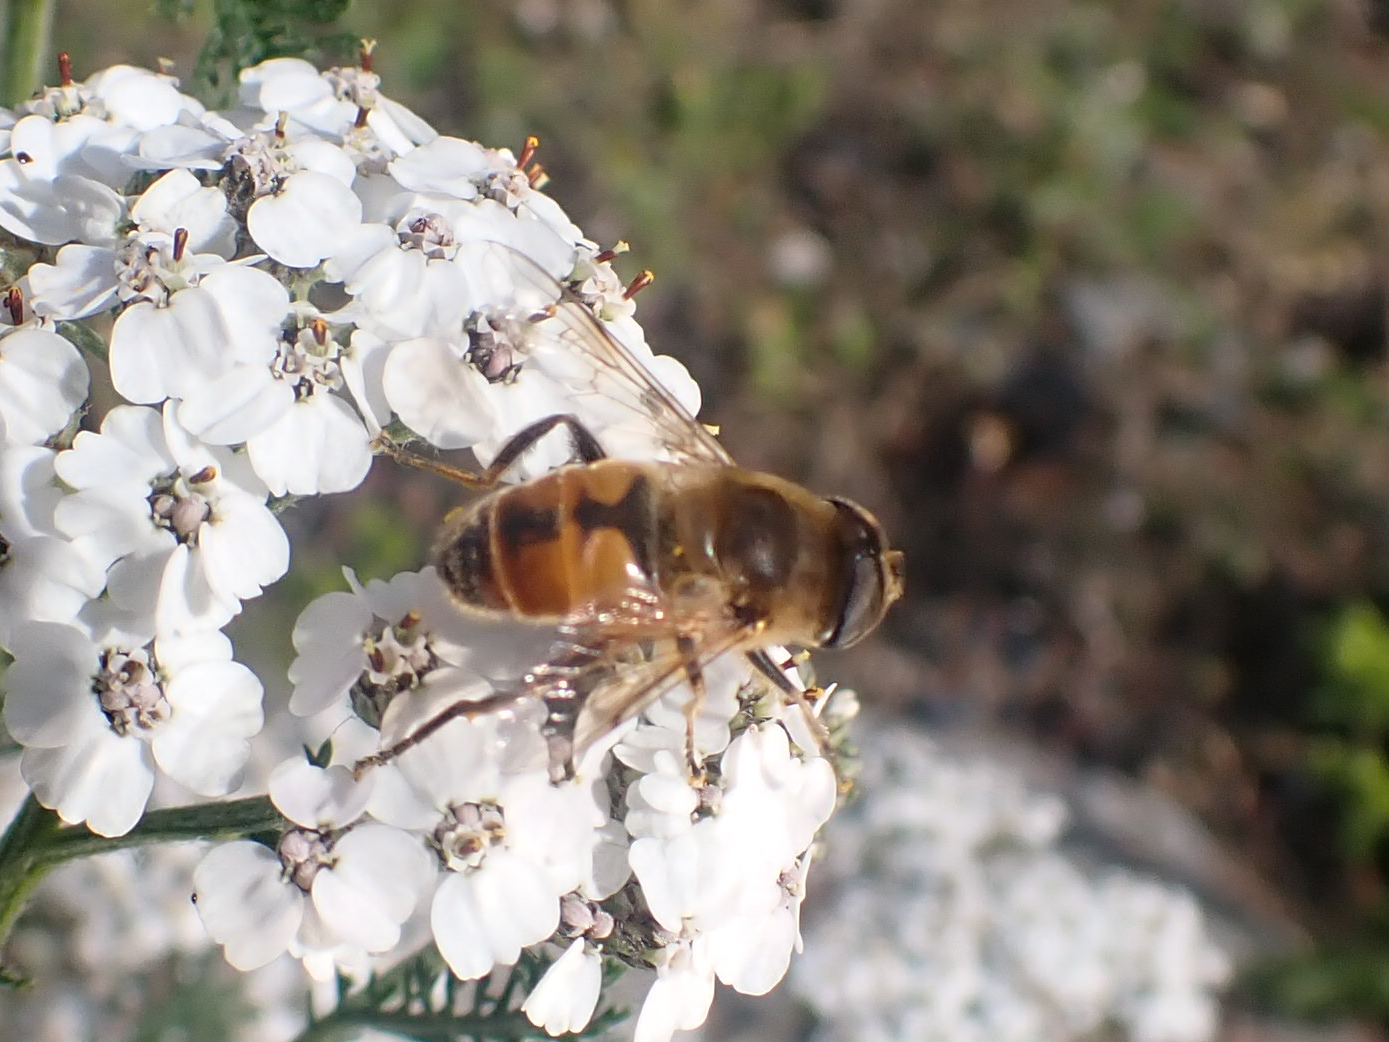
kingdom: Animalia
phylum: Arthropoda
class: Insecta
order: Diptera
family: Syrphidae
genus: Eristalis
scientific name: Eristalis tenax
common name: Drone fly
